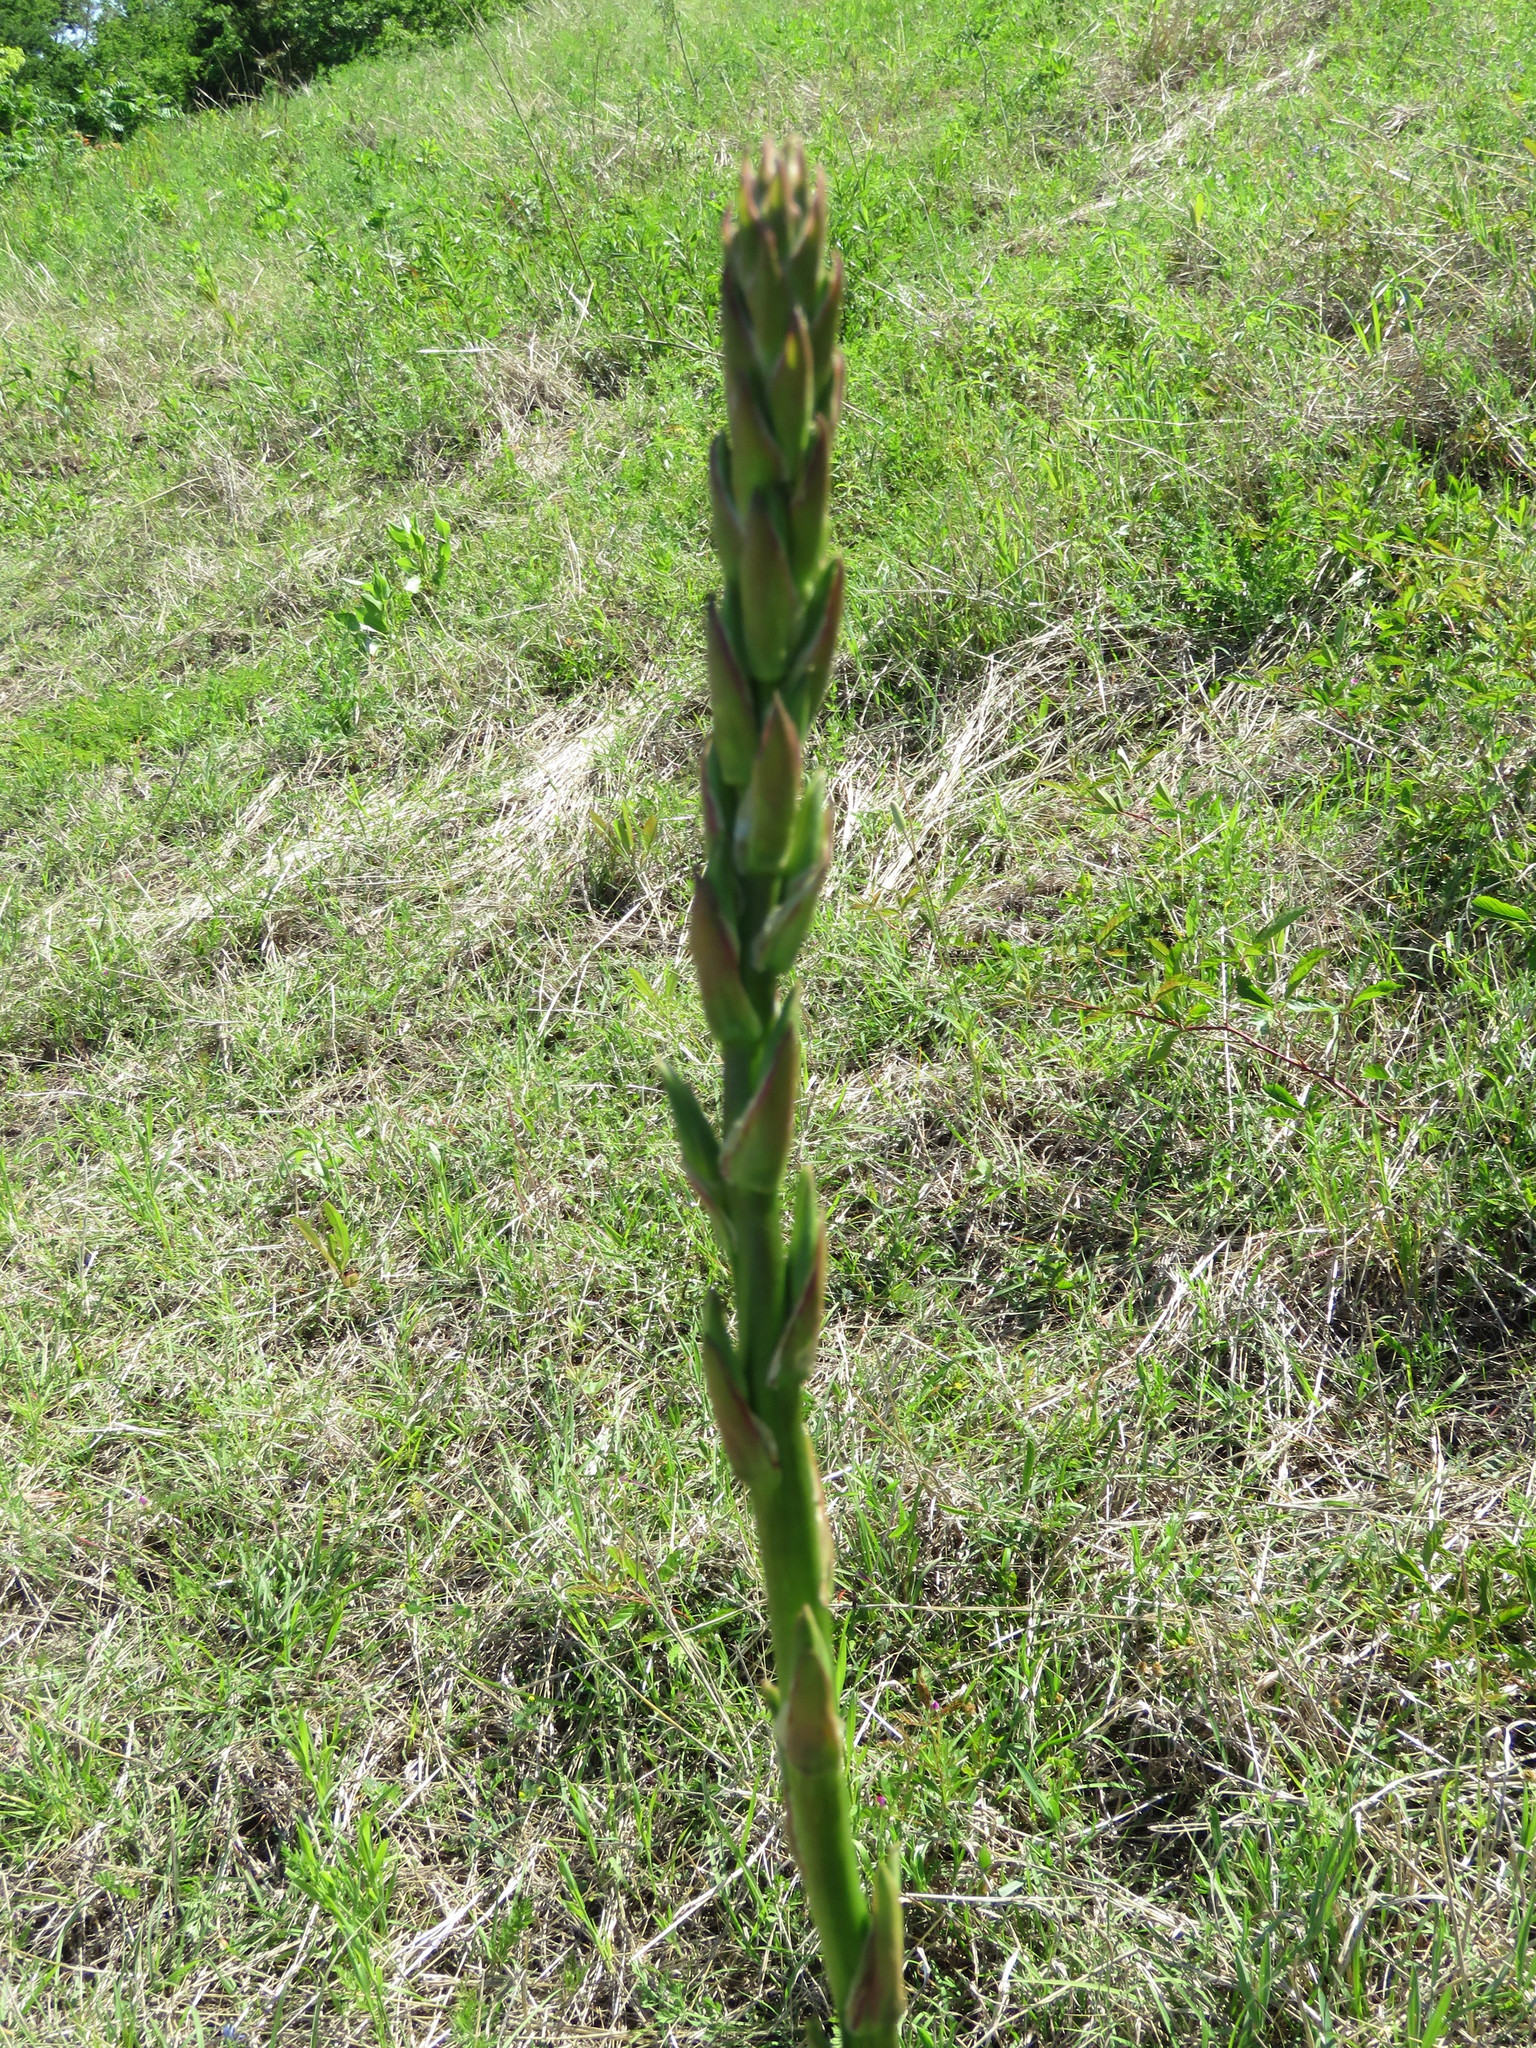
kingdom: Plantae
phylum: Tracheophyta
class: Liliopsida
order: Asparagales
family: Asparagaceae
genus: Yucca
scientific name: Yucca arkansana
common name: Arkansas yucca
